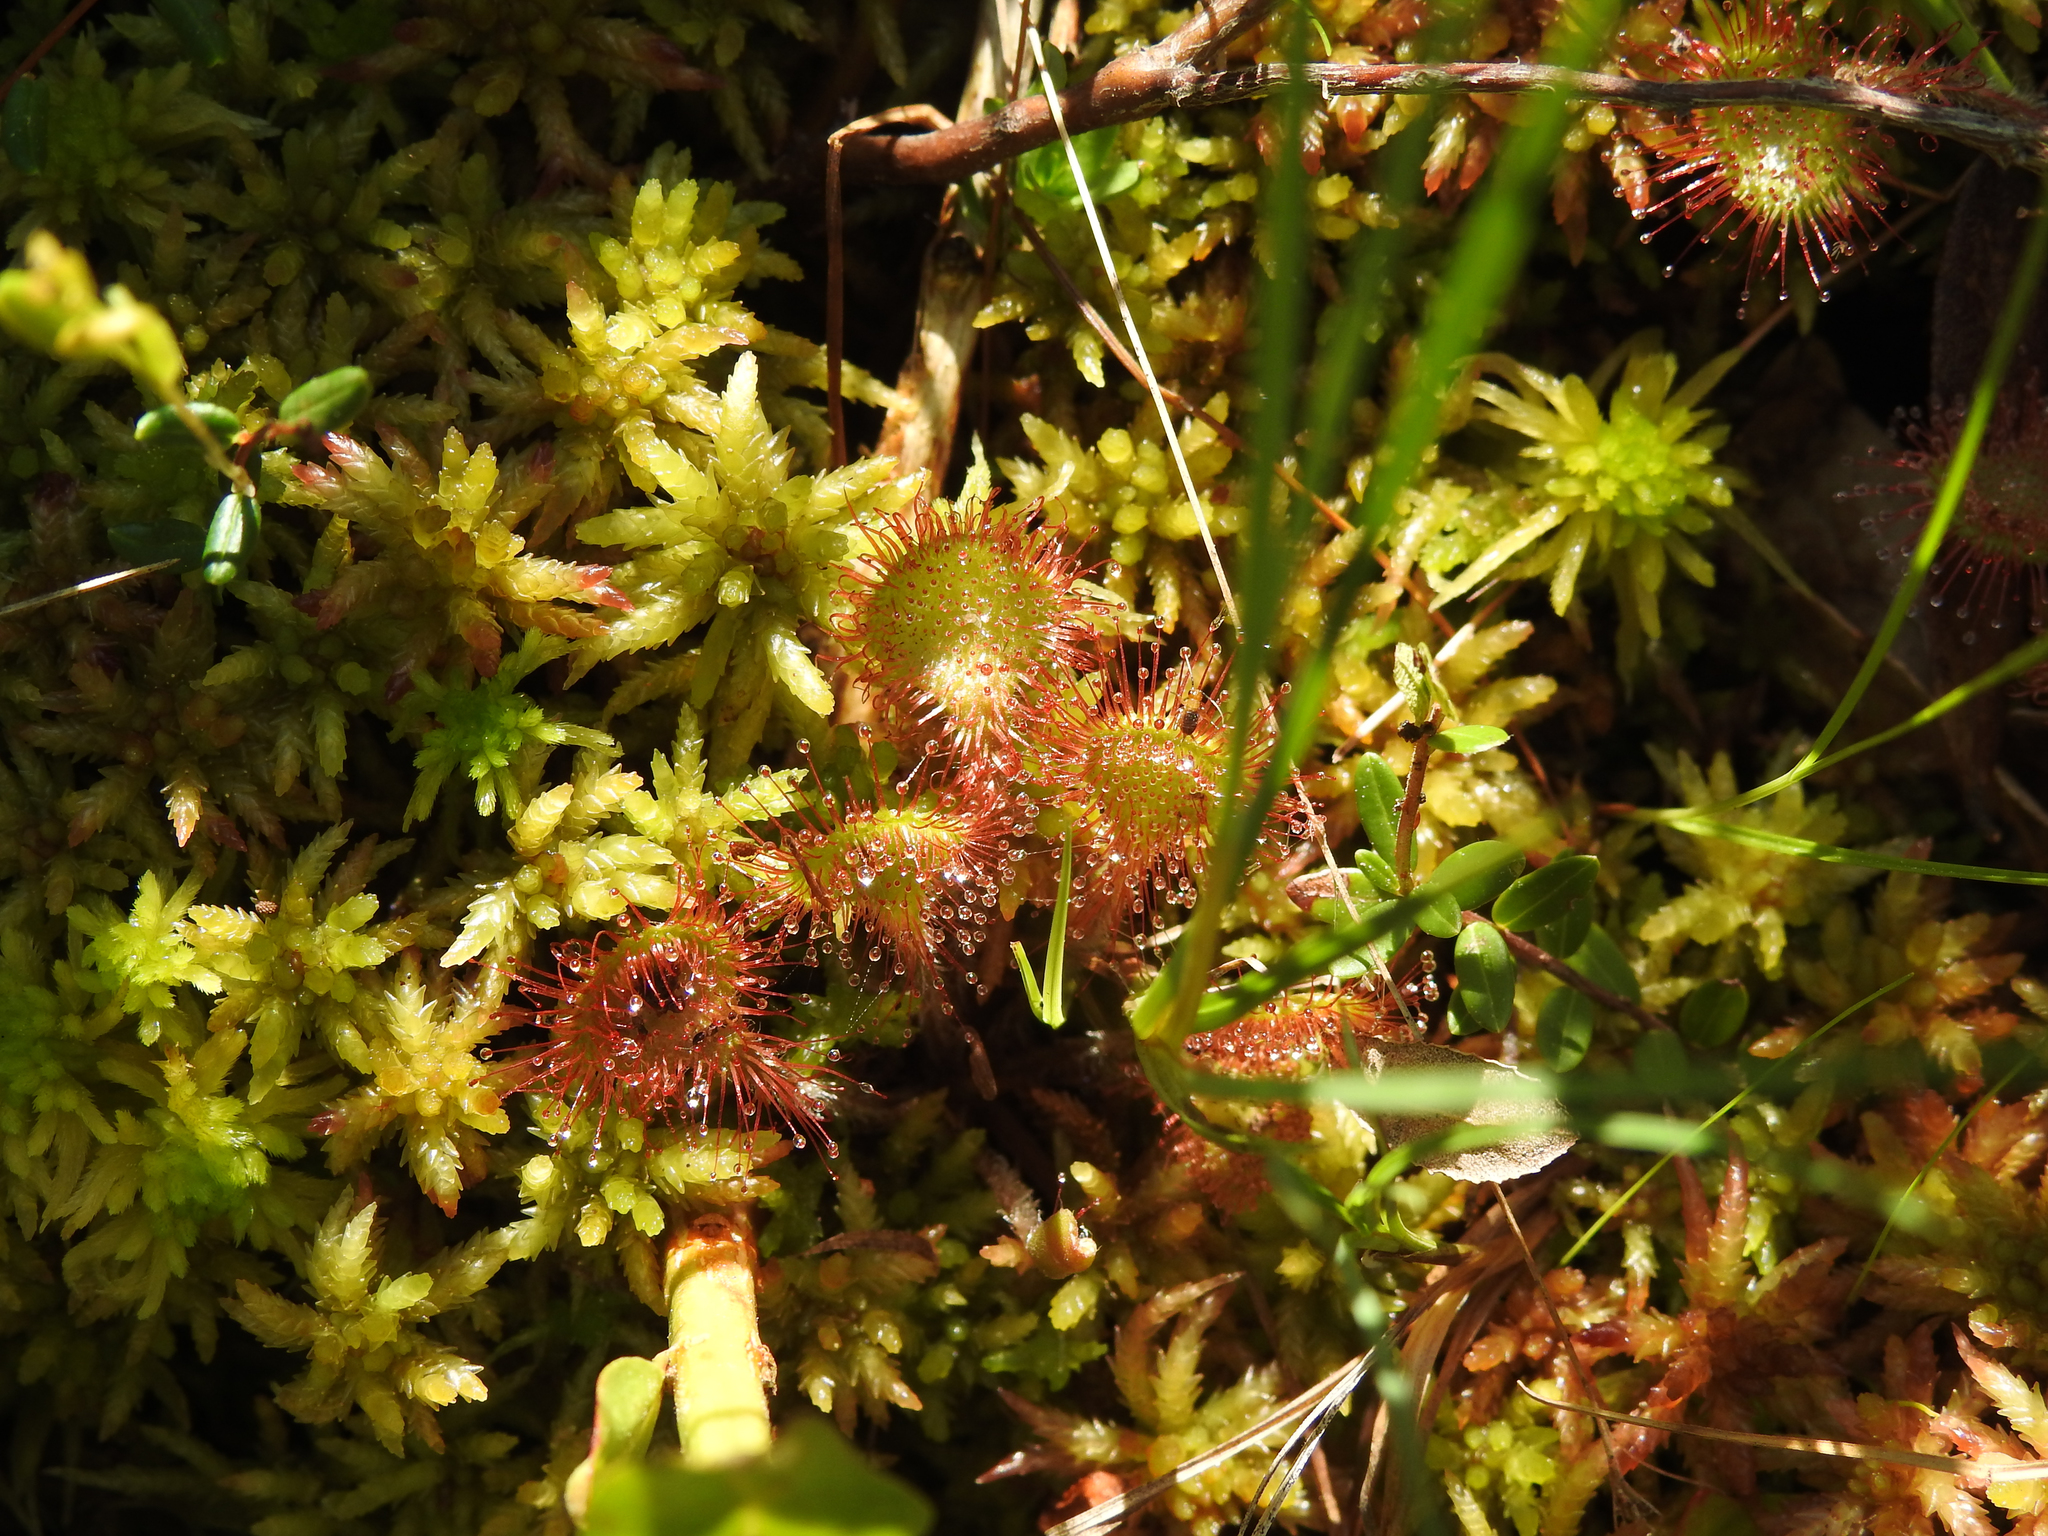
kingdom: Plantae
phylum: Tracheophyta
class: Magnoliopsida
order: Caryophyllales
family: Droseraceae
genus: Drosera
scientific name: Drosera rotundifolia
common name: Round-leaved sundew
